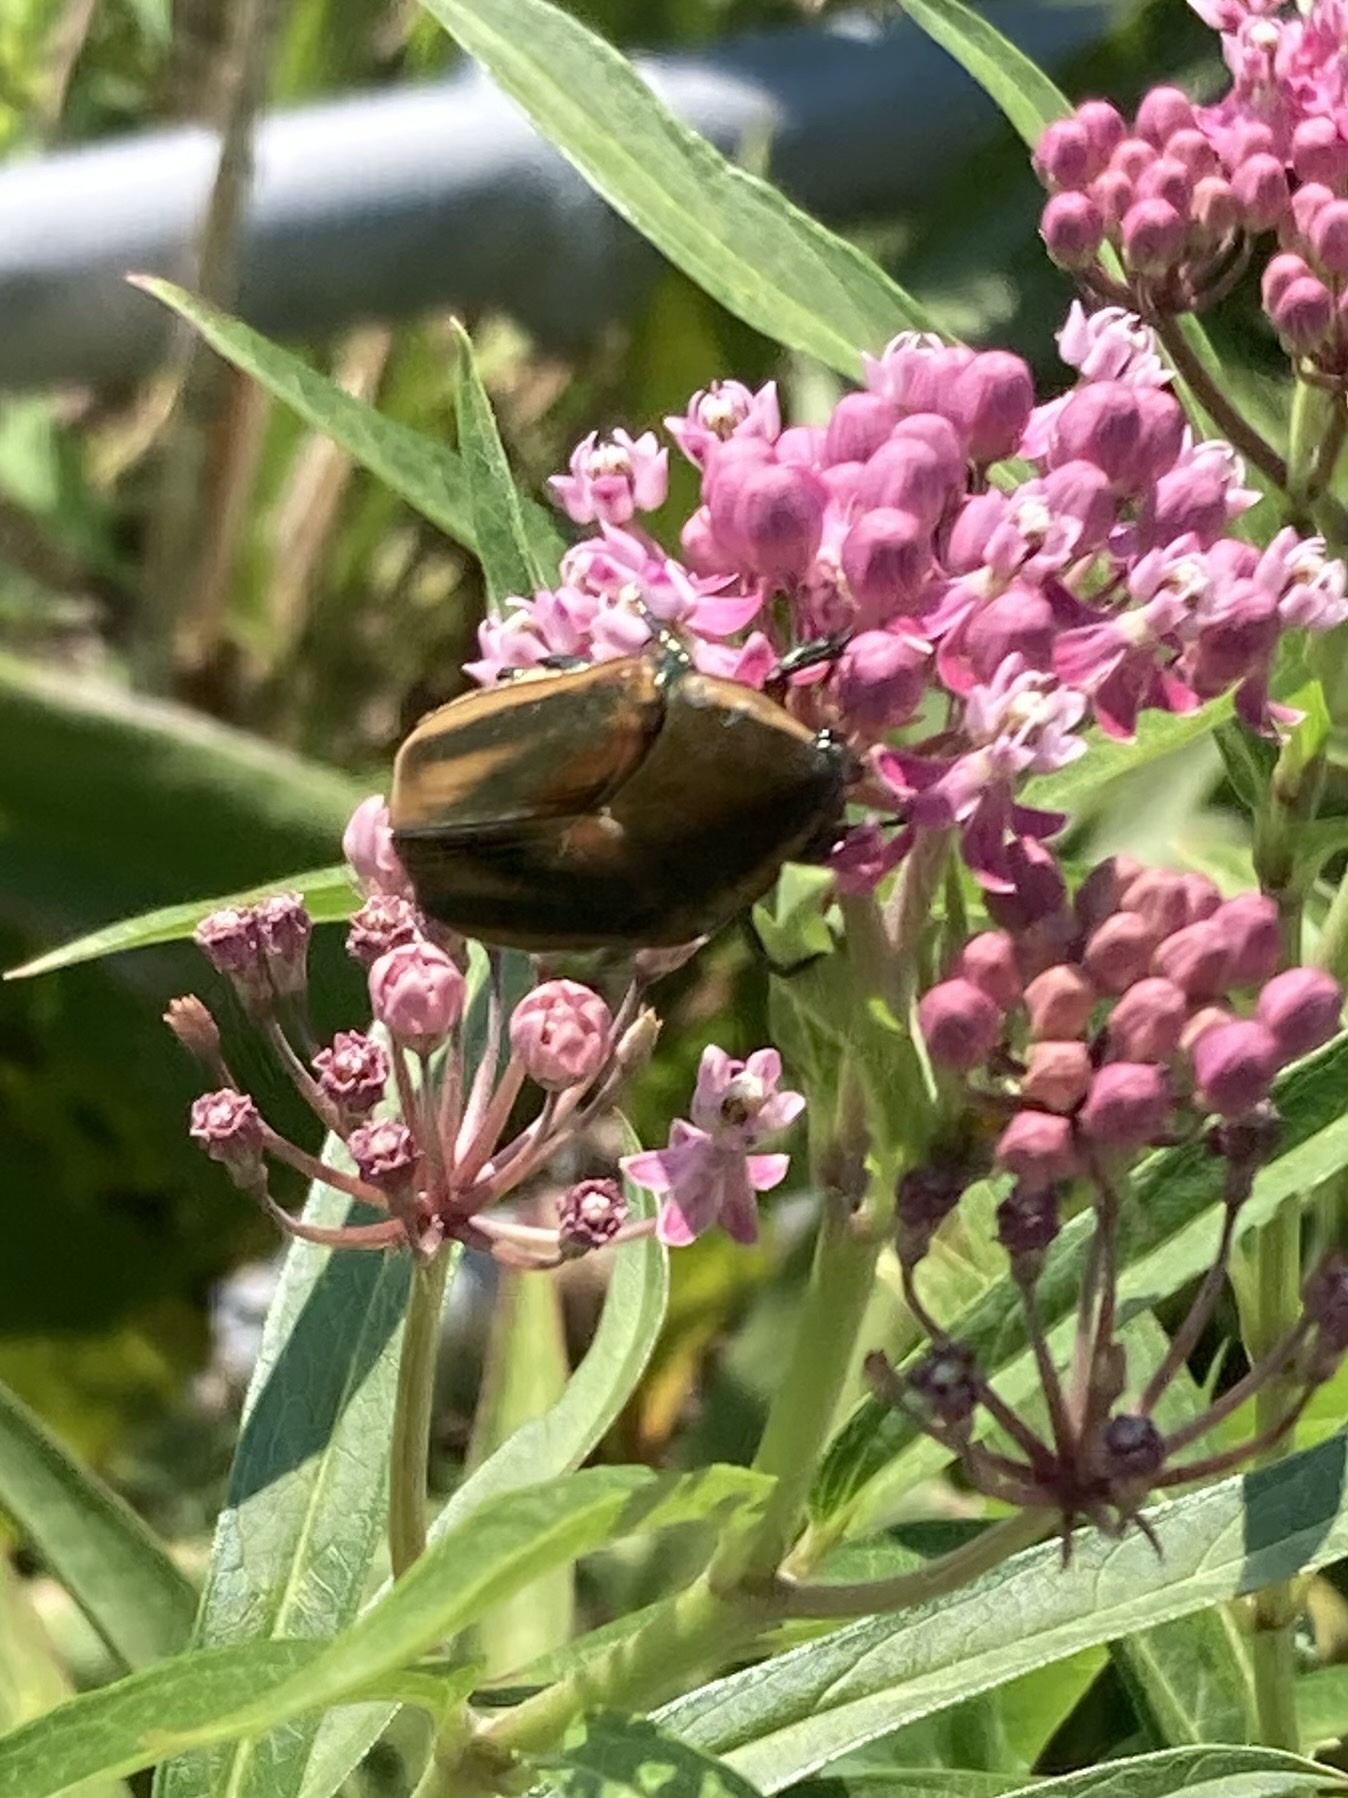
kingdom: Animalia
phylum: Arthropoda
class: Insecta
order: Coleoptera
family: Scarabaeidae
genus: Cotinis
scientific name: Cotinis nitida
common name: Common green june beetle
